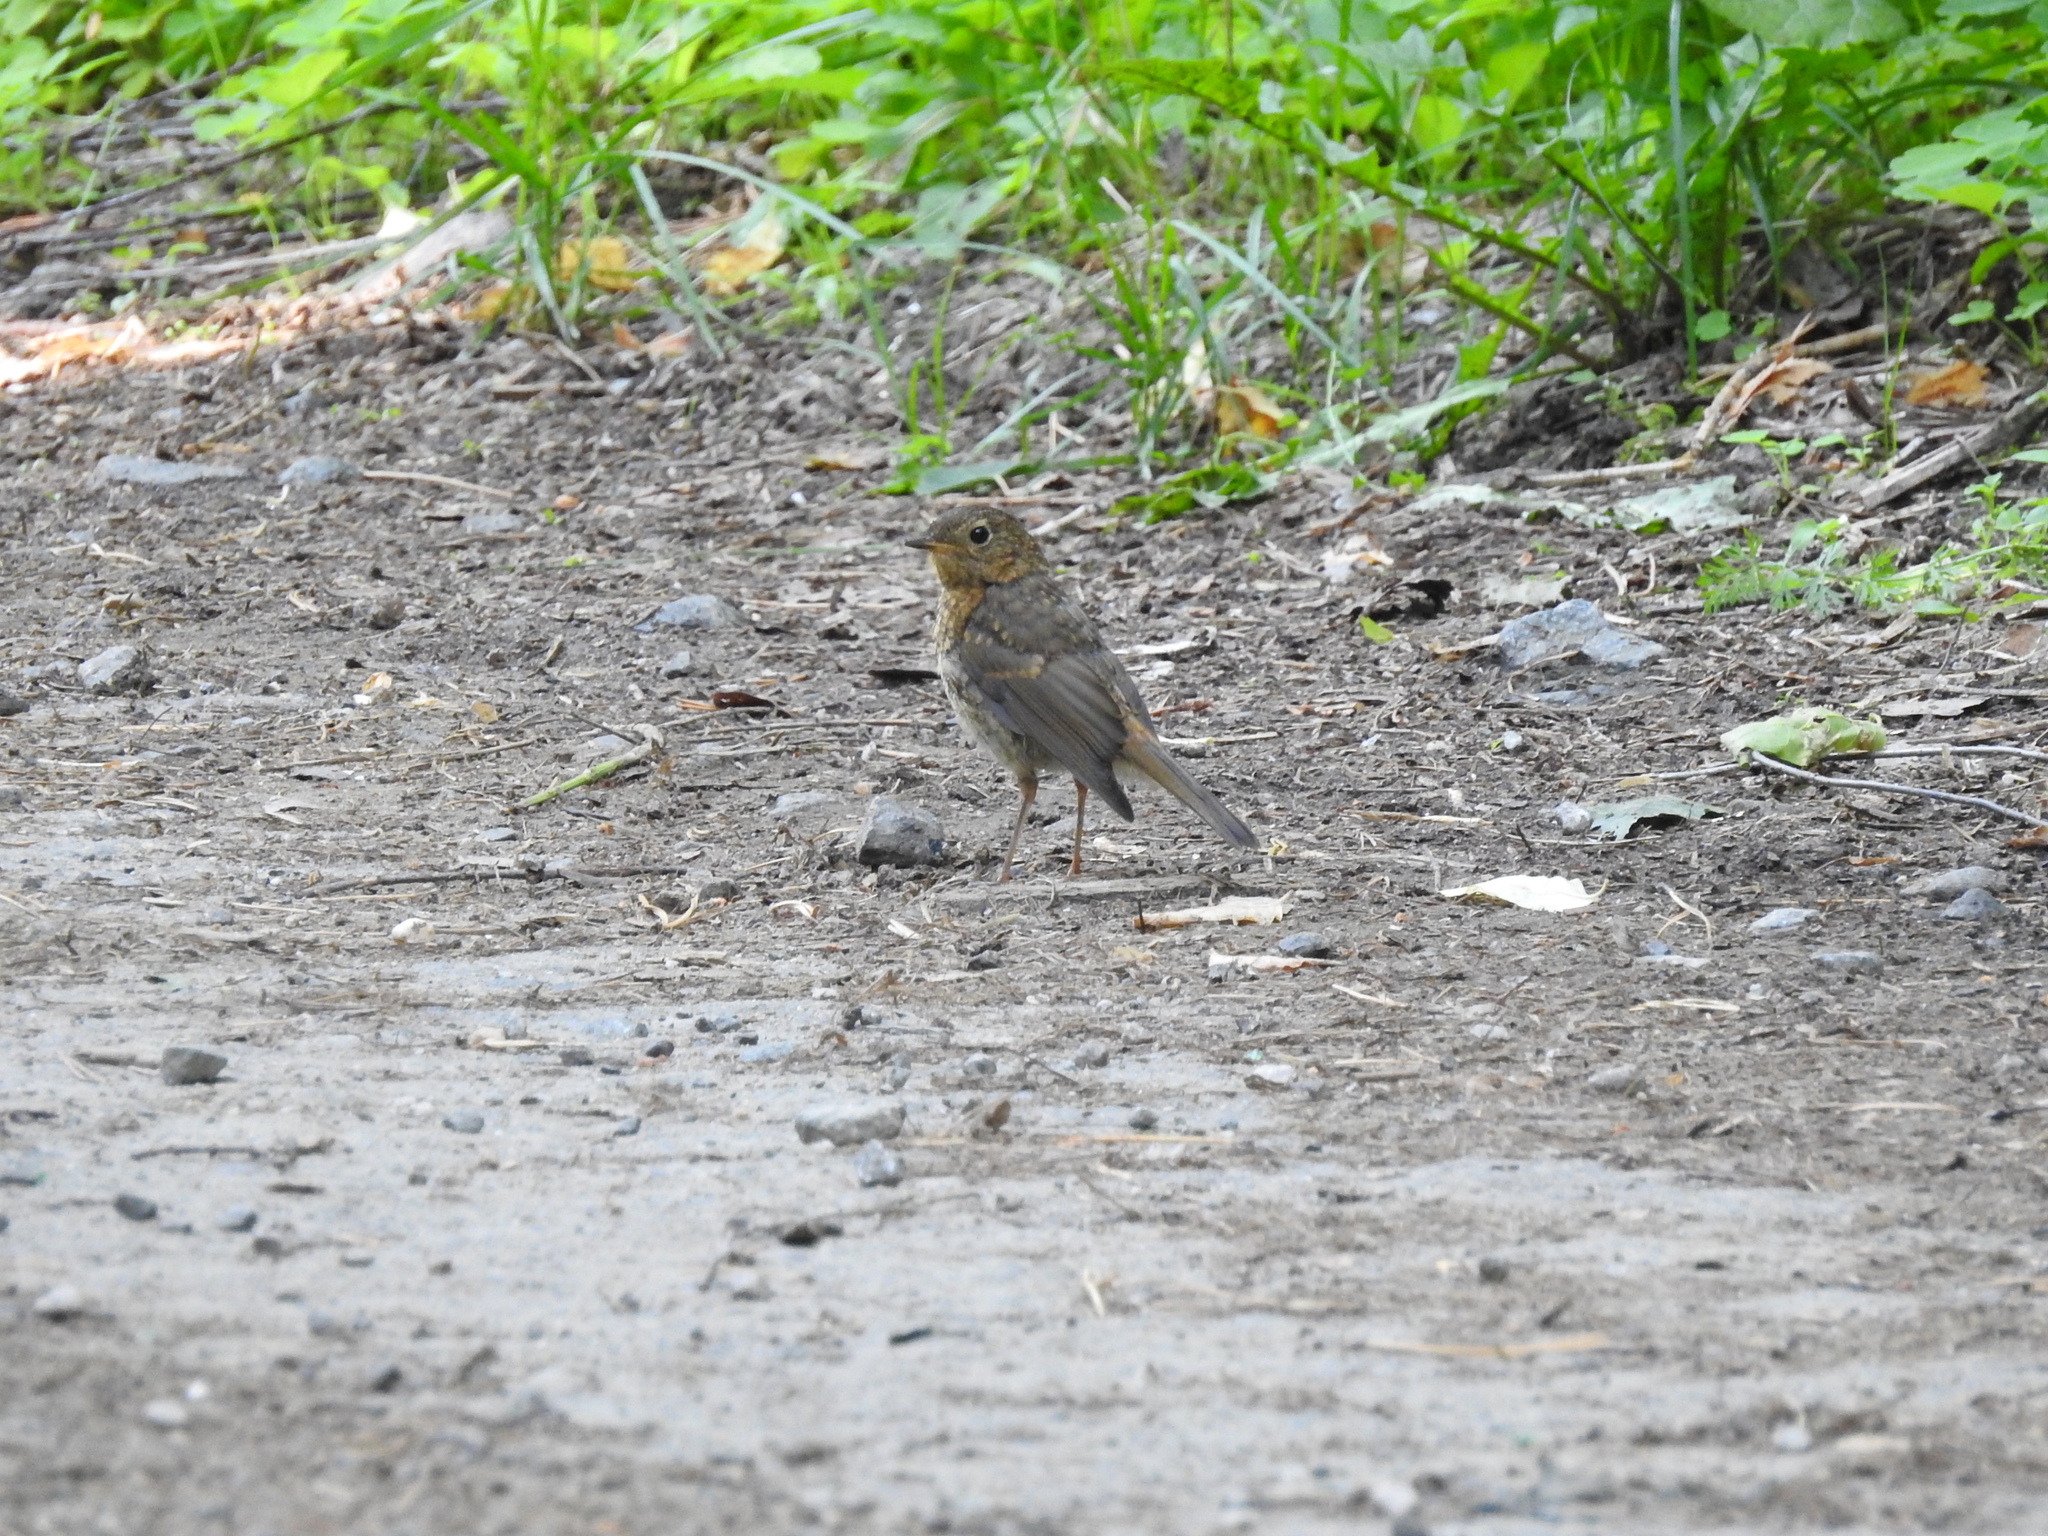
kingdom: Animalia
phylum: Chordata
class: Aves
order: Passeriformes
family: Muscicapidae
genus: Erithacus
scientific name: Erithacus rubecula
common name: European robin
